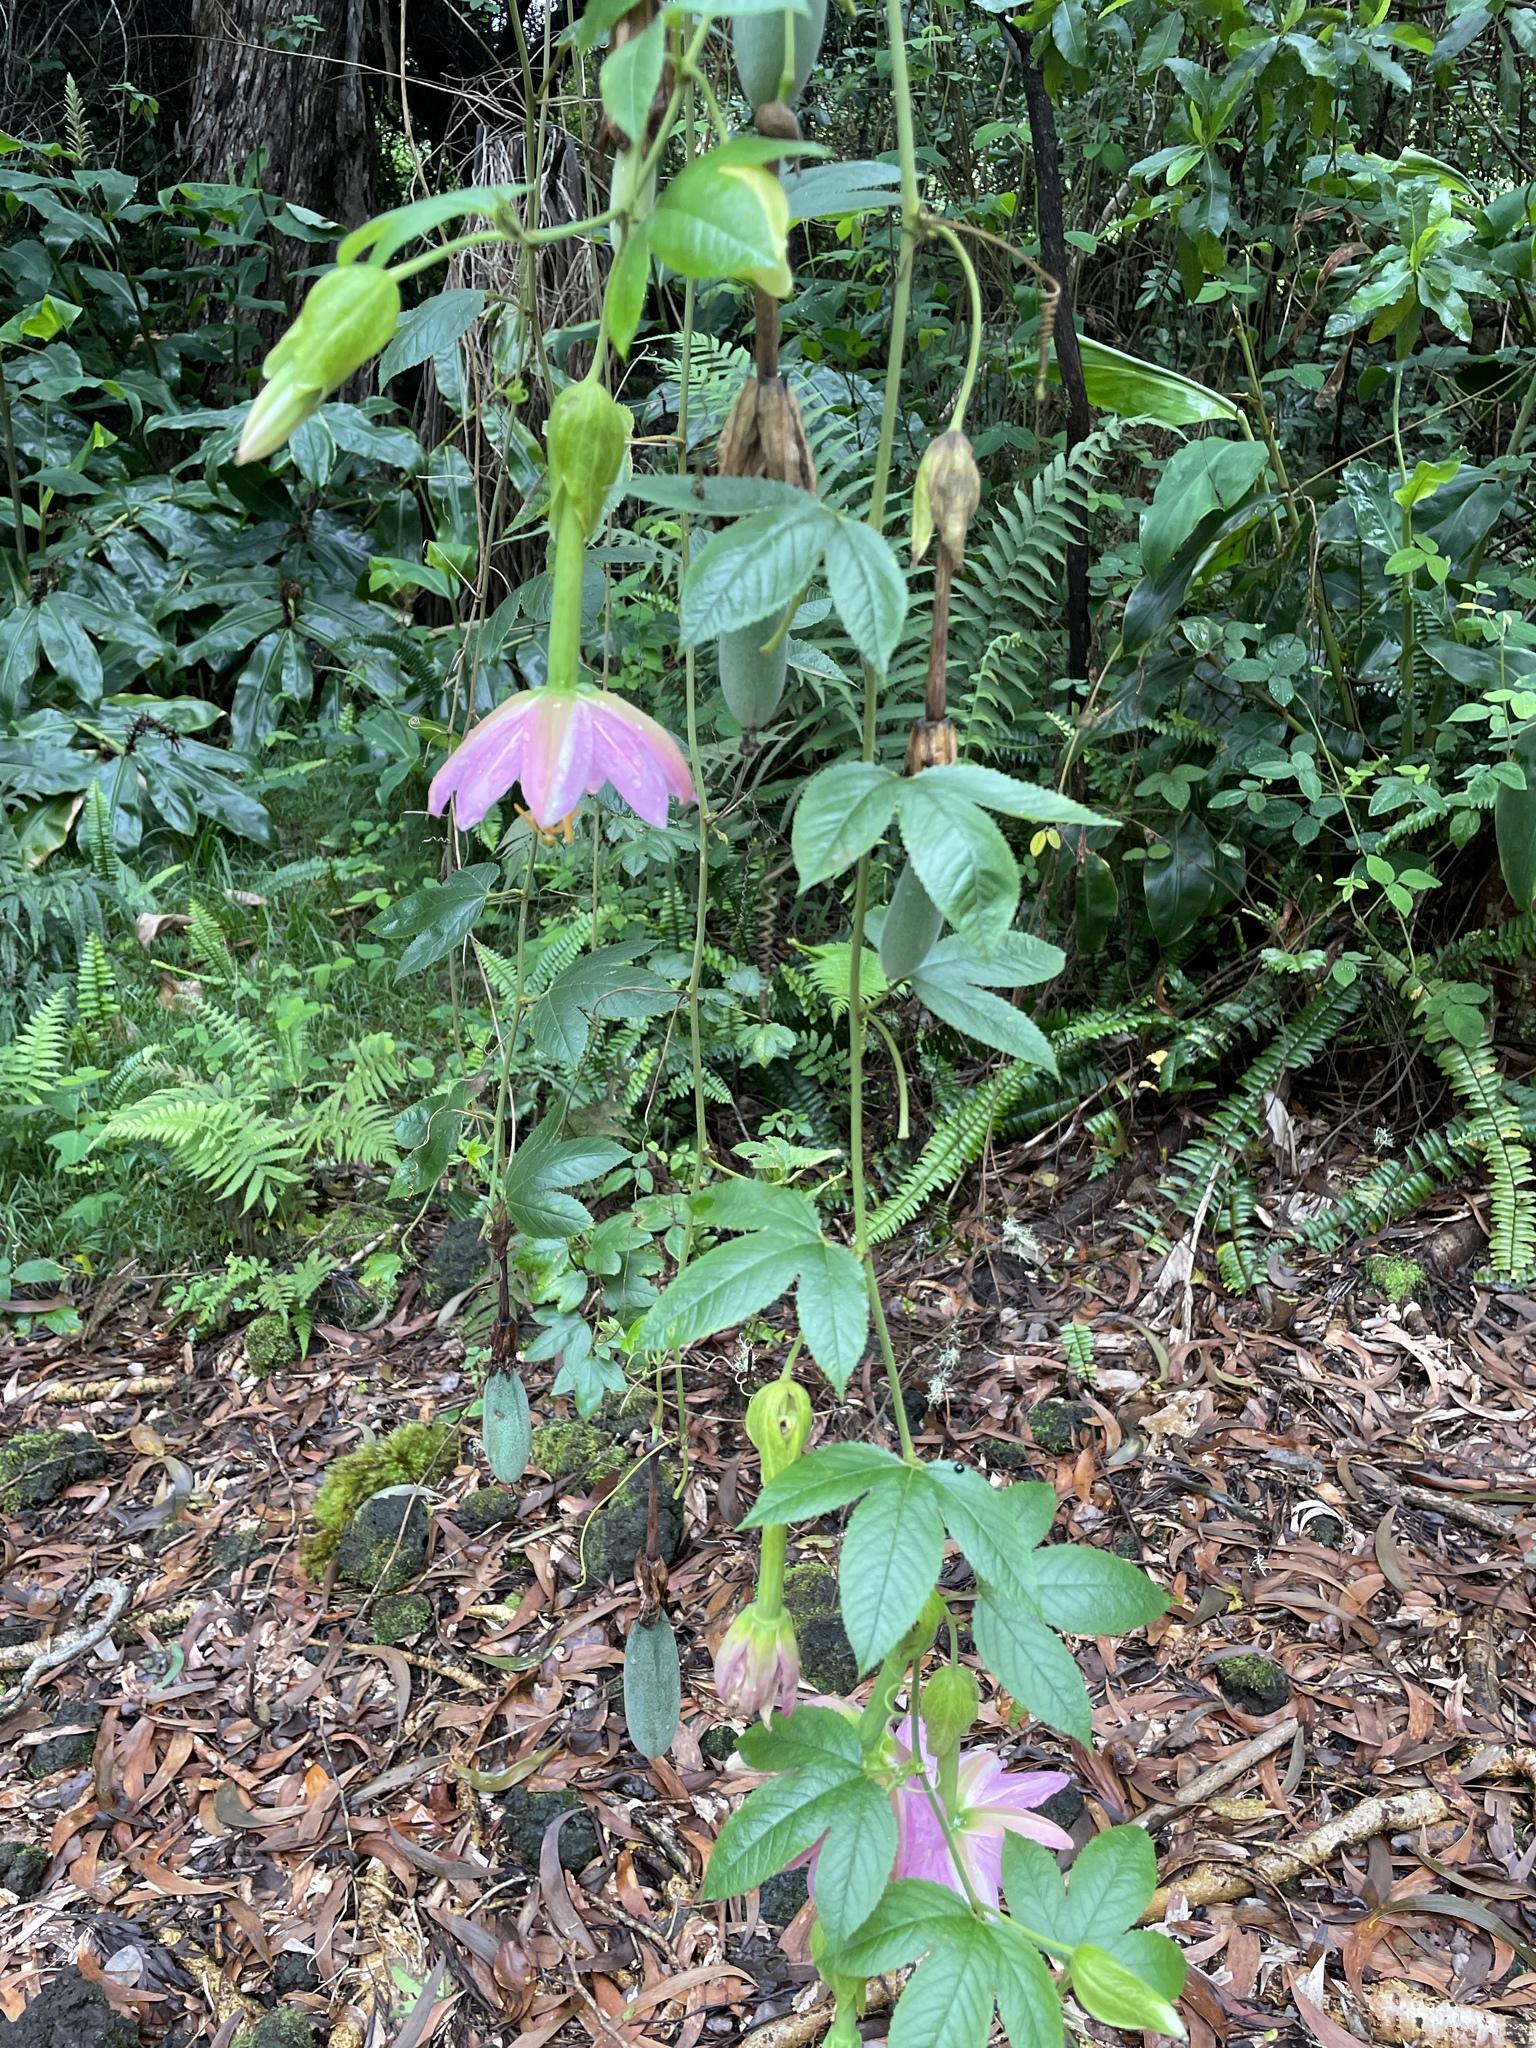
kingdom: Plantae
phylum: Tracheophyta
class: Magnoliopsida
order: Malpighiales
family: Passifloraceae
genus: Passiflora
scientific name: Passiflora tarminiana
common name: Banana poka
